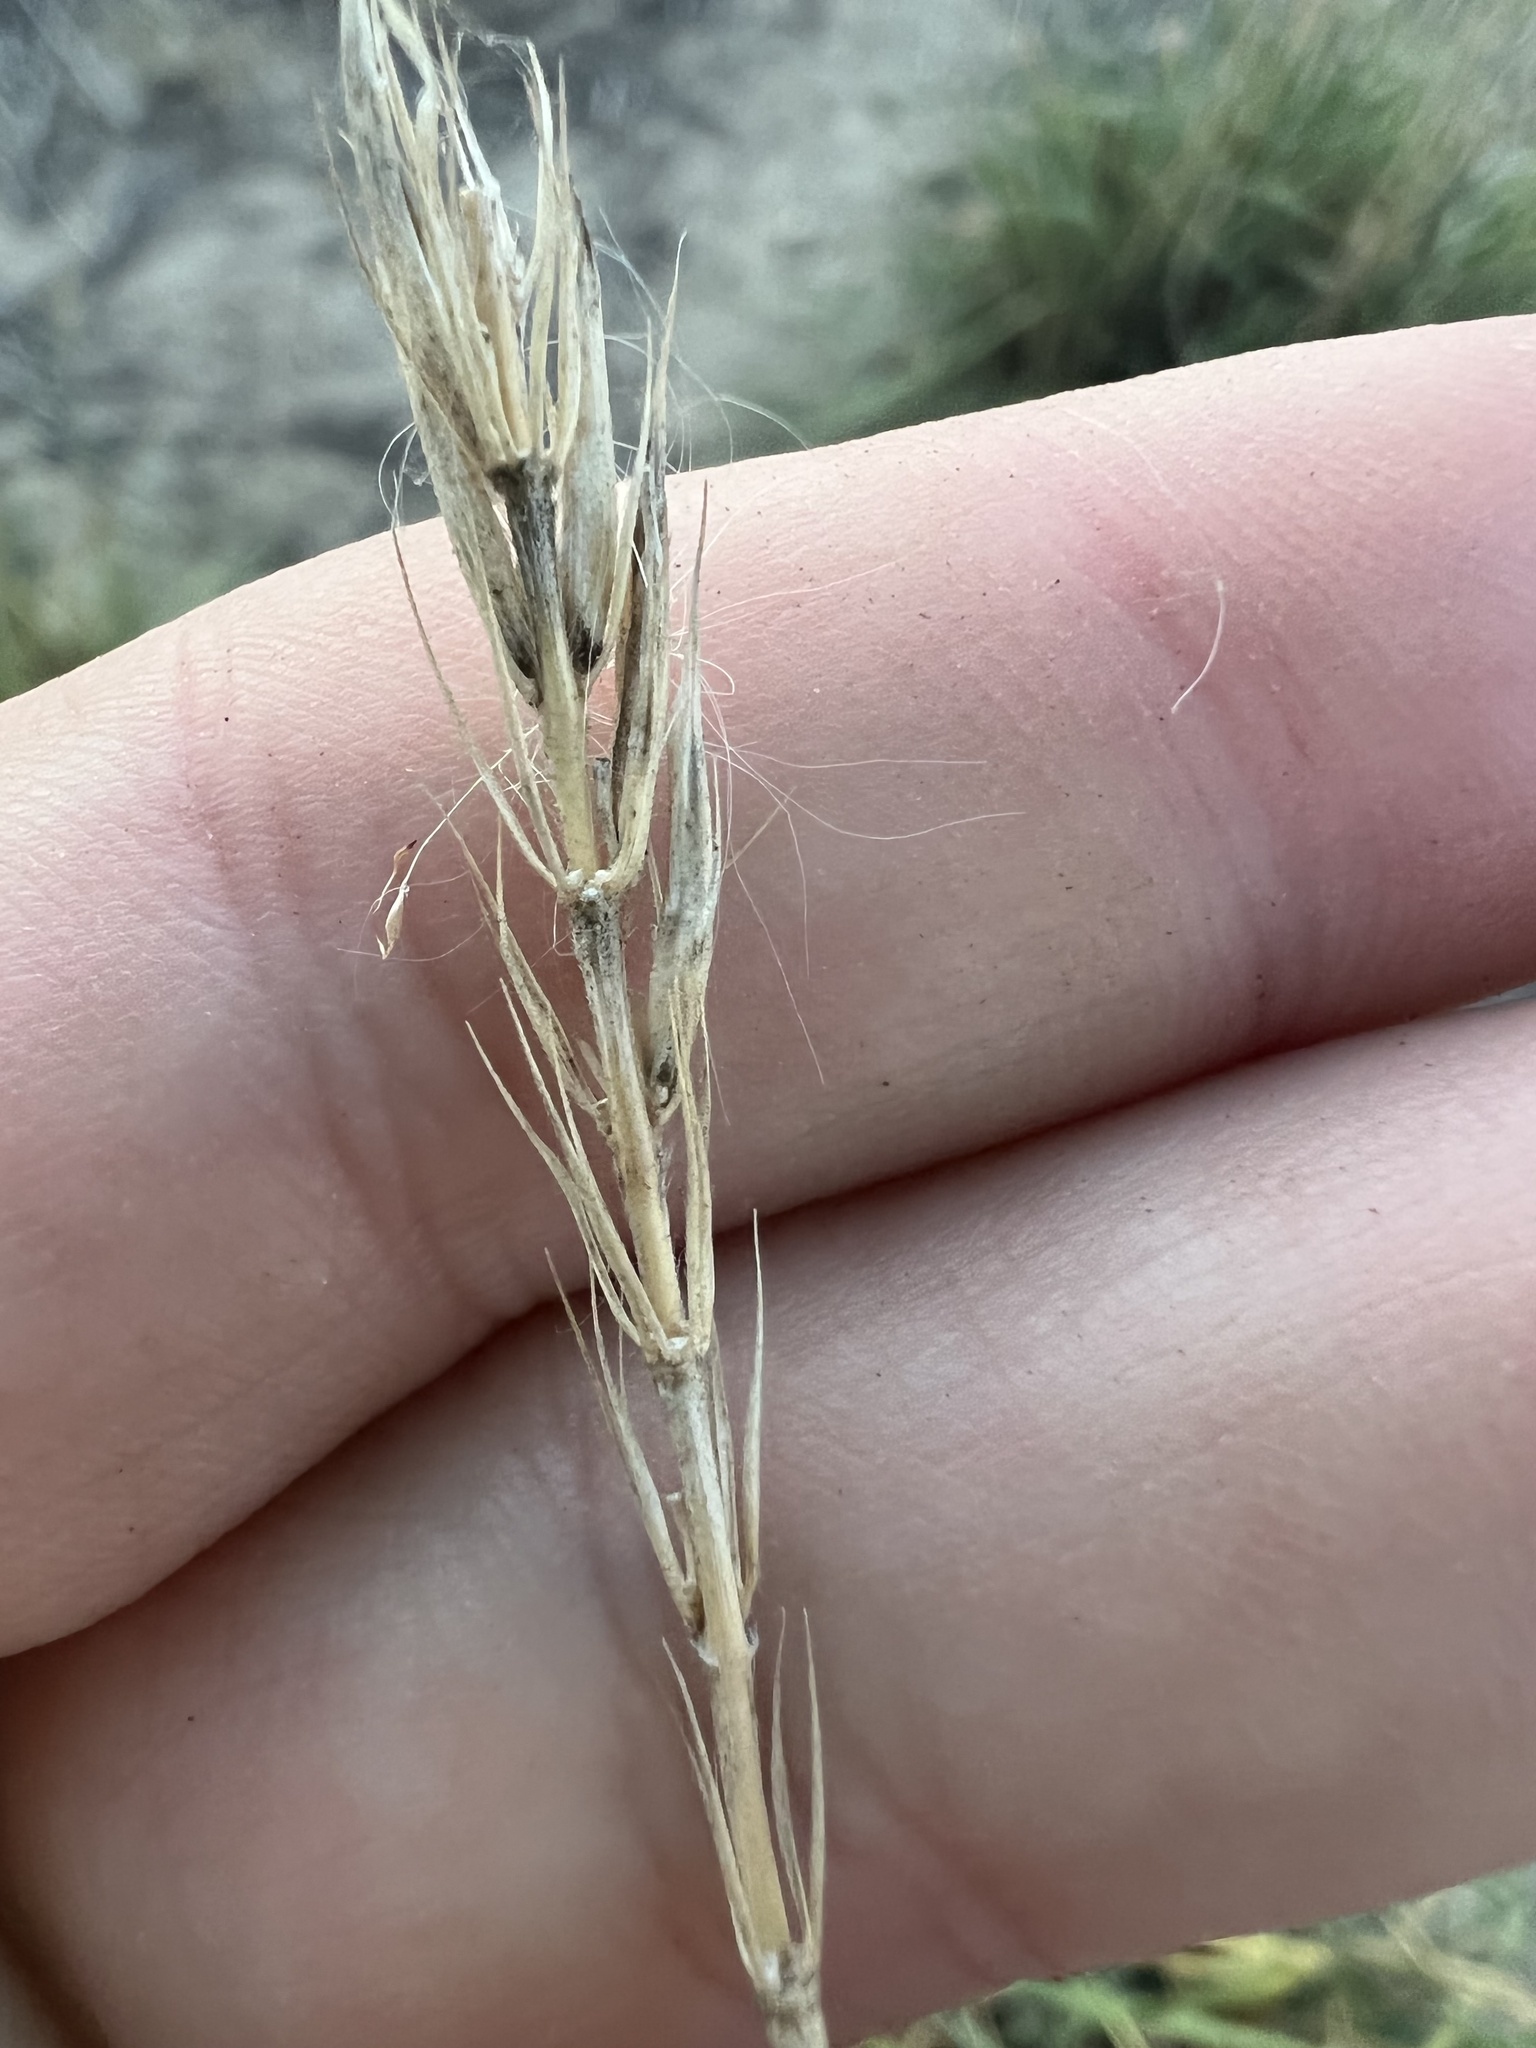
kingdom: Plantae
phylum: Tracheophyta
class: Liliopsida
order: Poales
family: Poaceae
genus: Psathyrostachys
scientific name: Psathyrostachys juncea
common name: Russian wildrye
